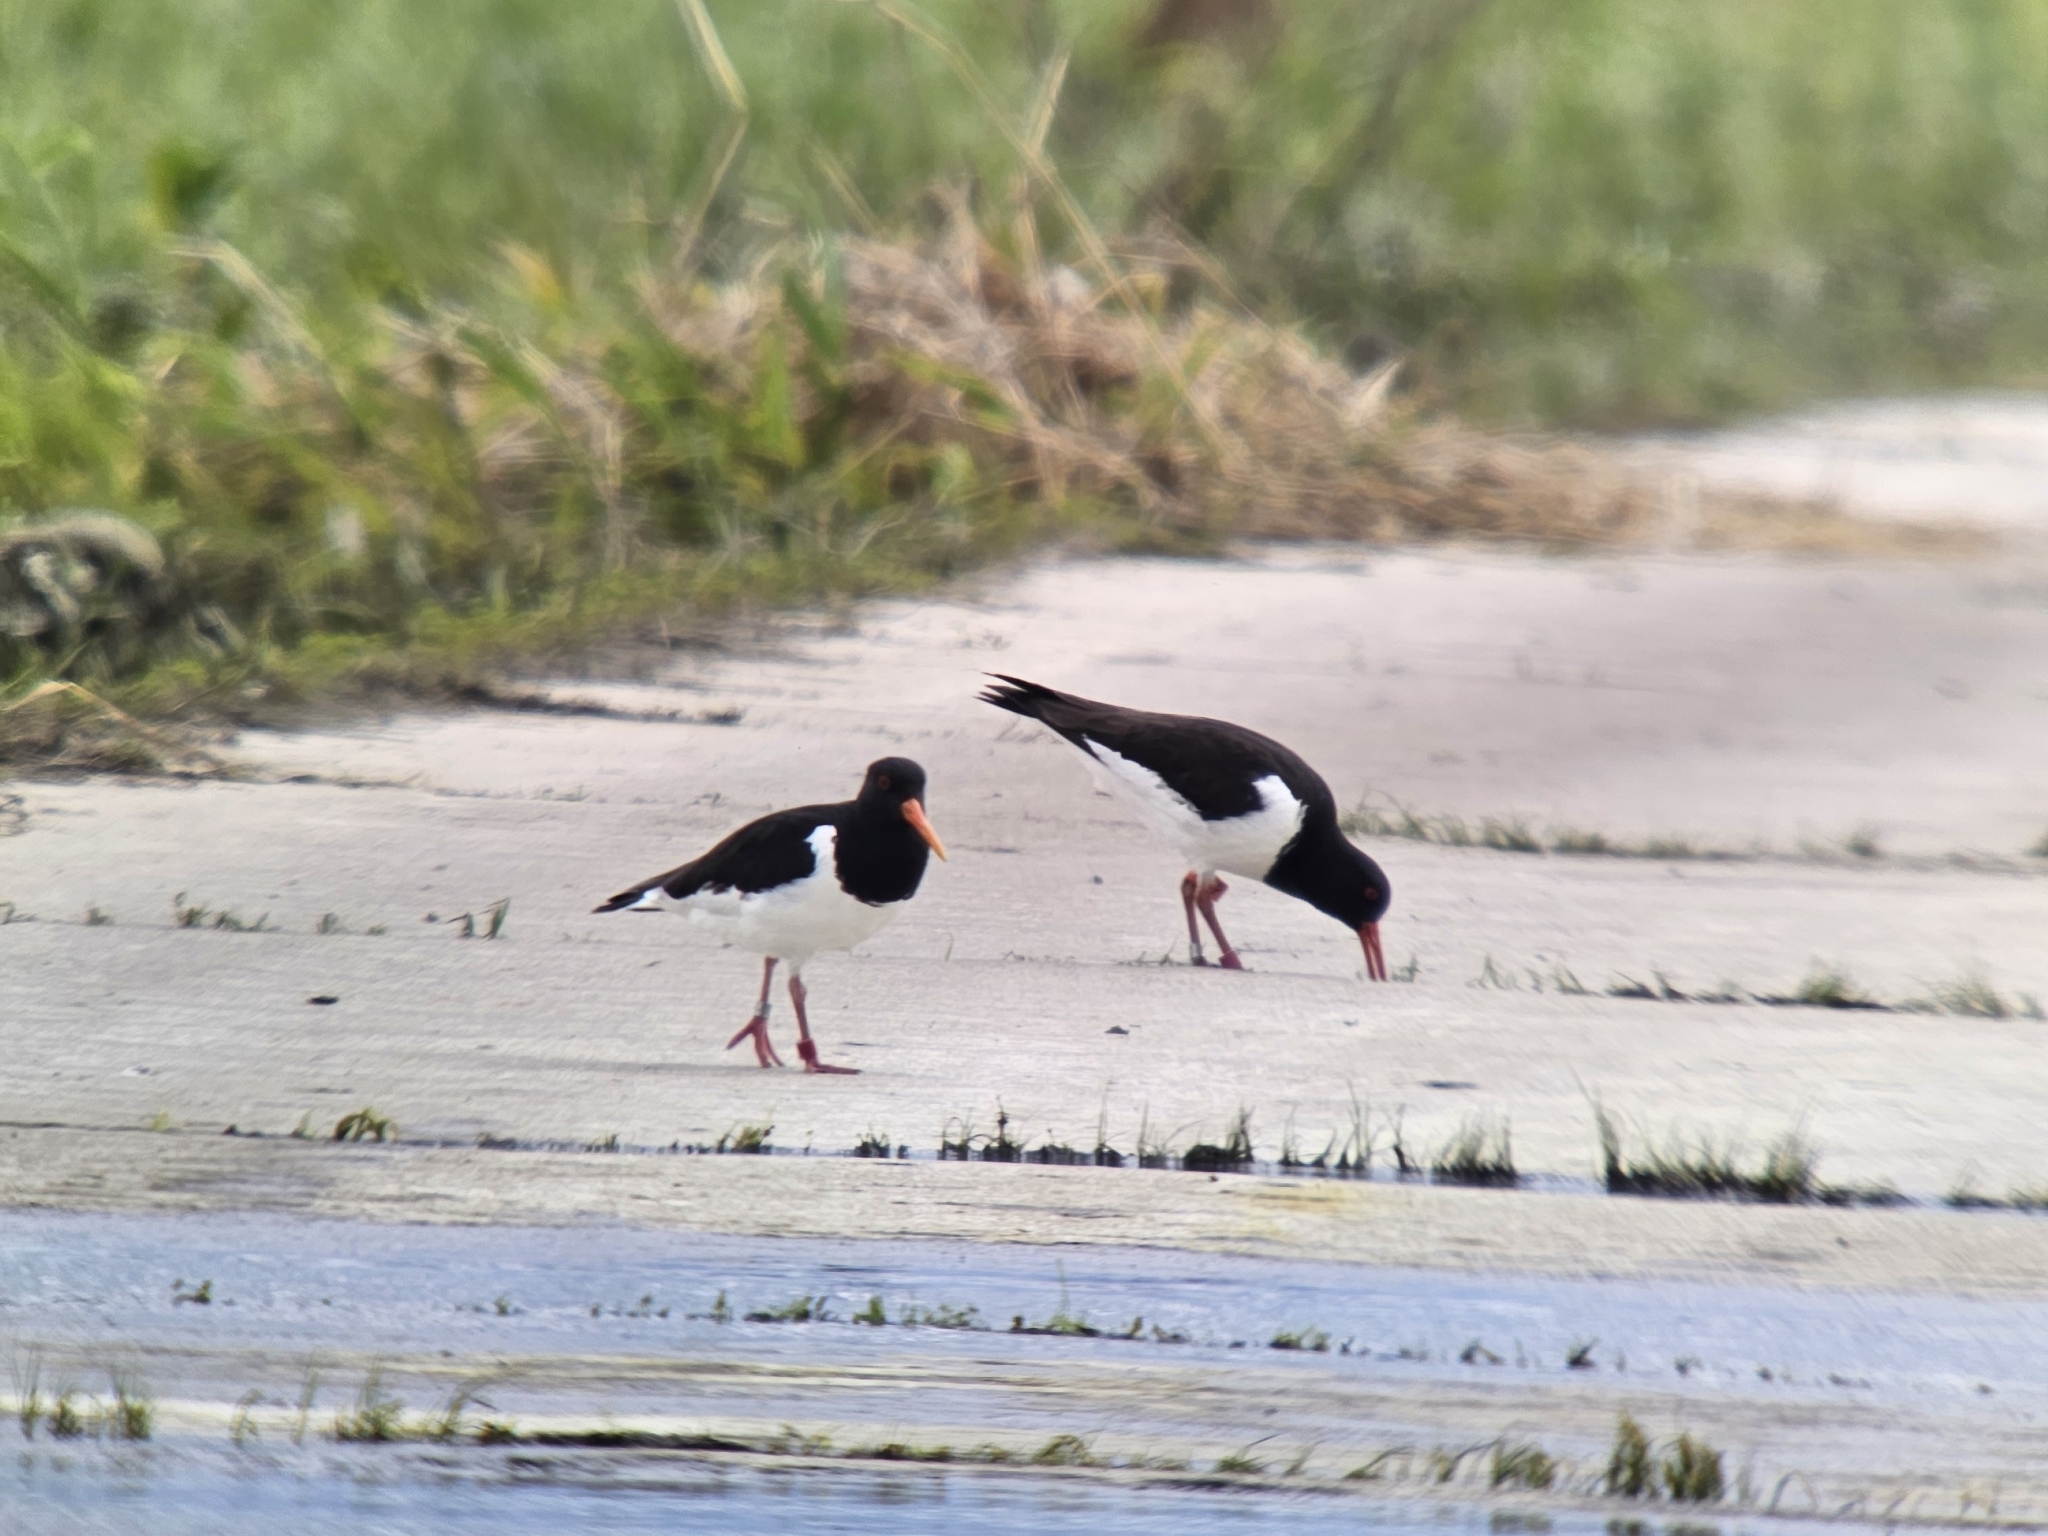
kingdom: Animalia
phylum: Chordata
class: Aves
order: Charadriiformes
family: Haematopodidae
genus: Haematopus
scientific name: Haematopus ostralegus
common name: Eurasian oystercatcher
